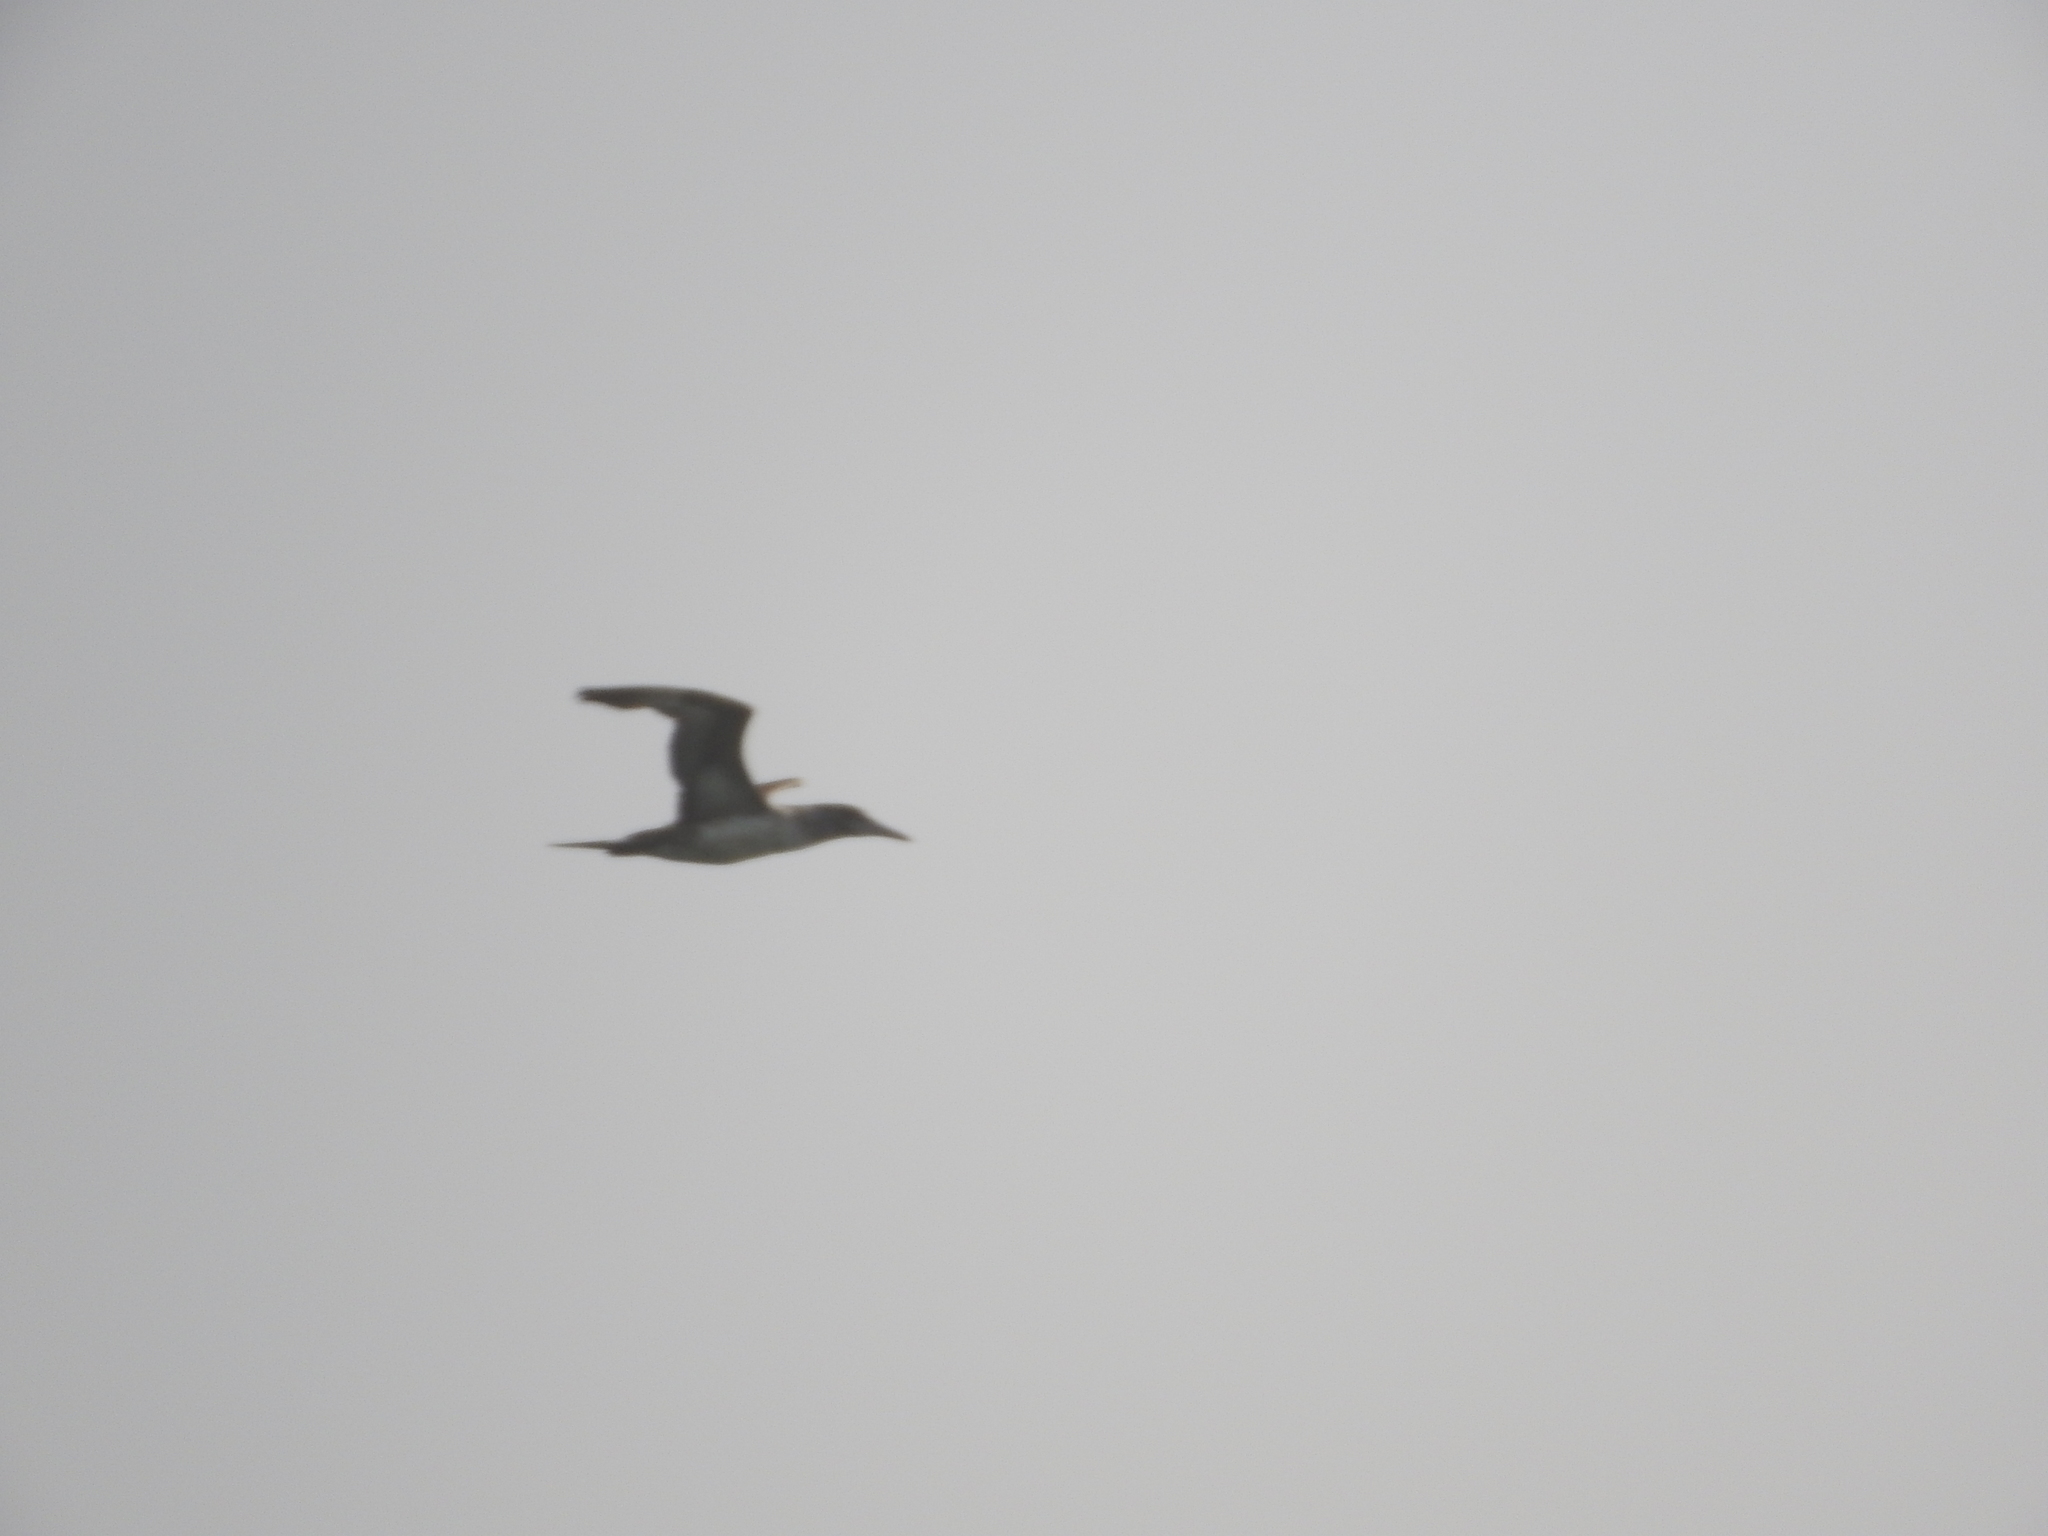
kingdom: Animalia
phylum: Chordata
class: Aves
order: Suliformes
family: Sulidae
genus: Morus
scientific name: Morus bassanus
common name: Northern gannet
